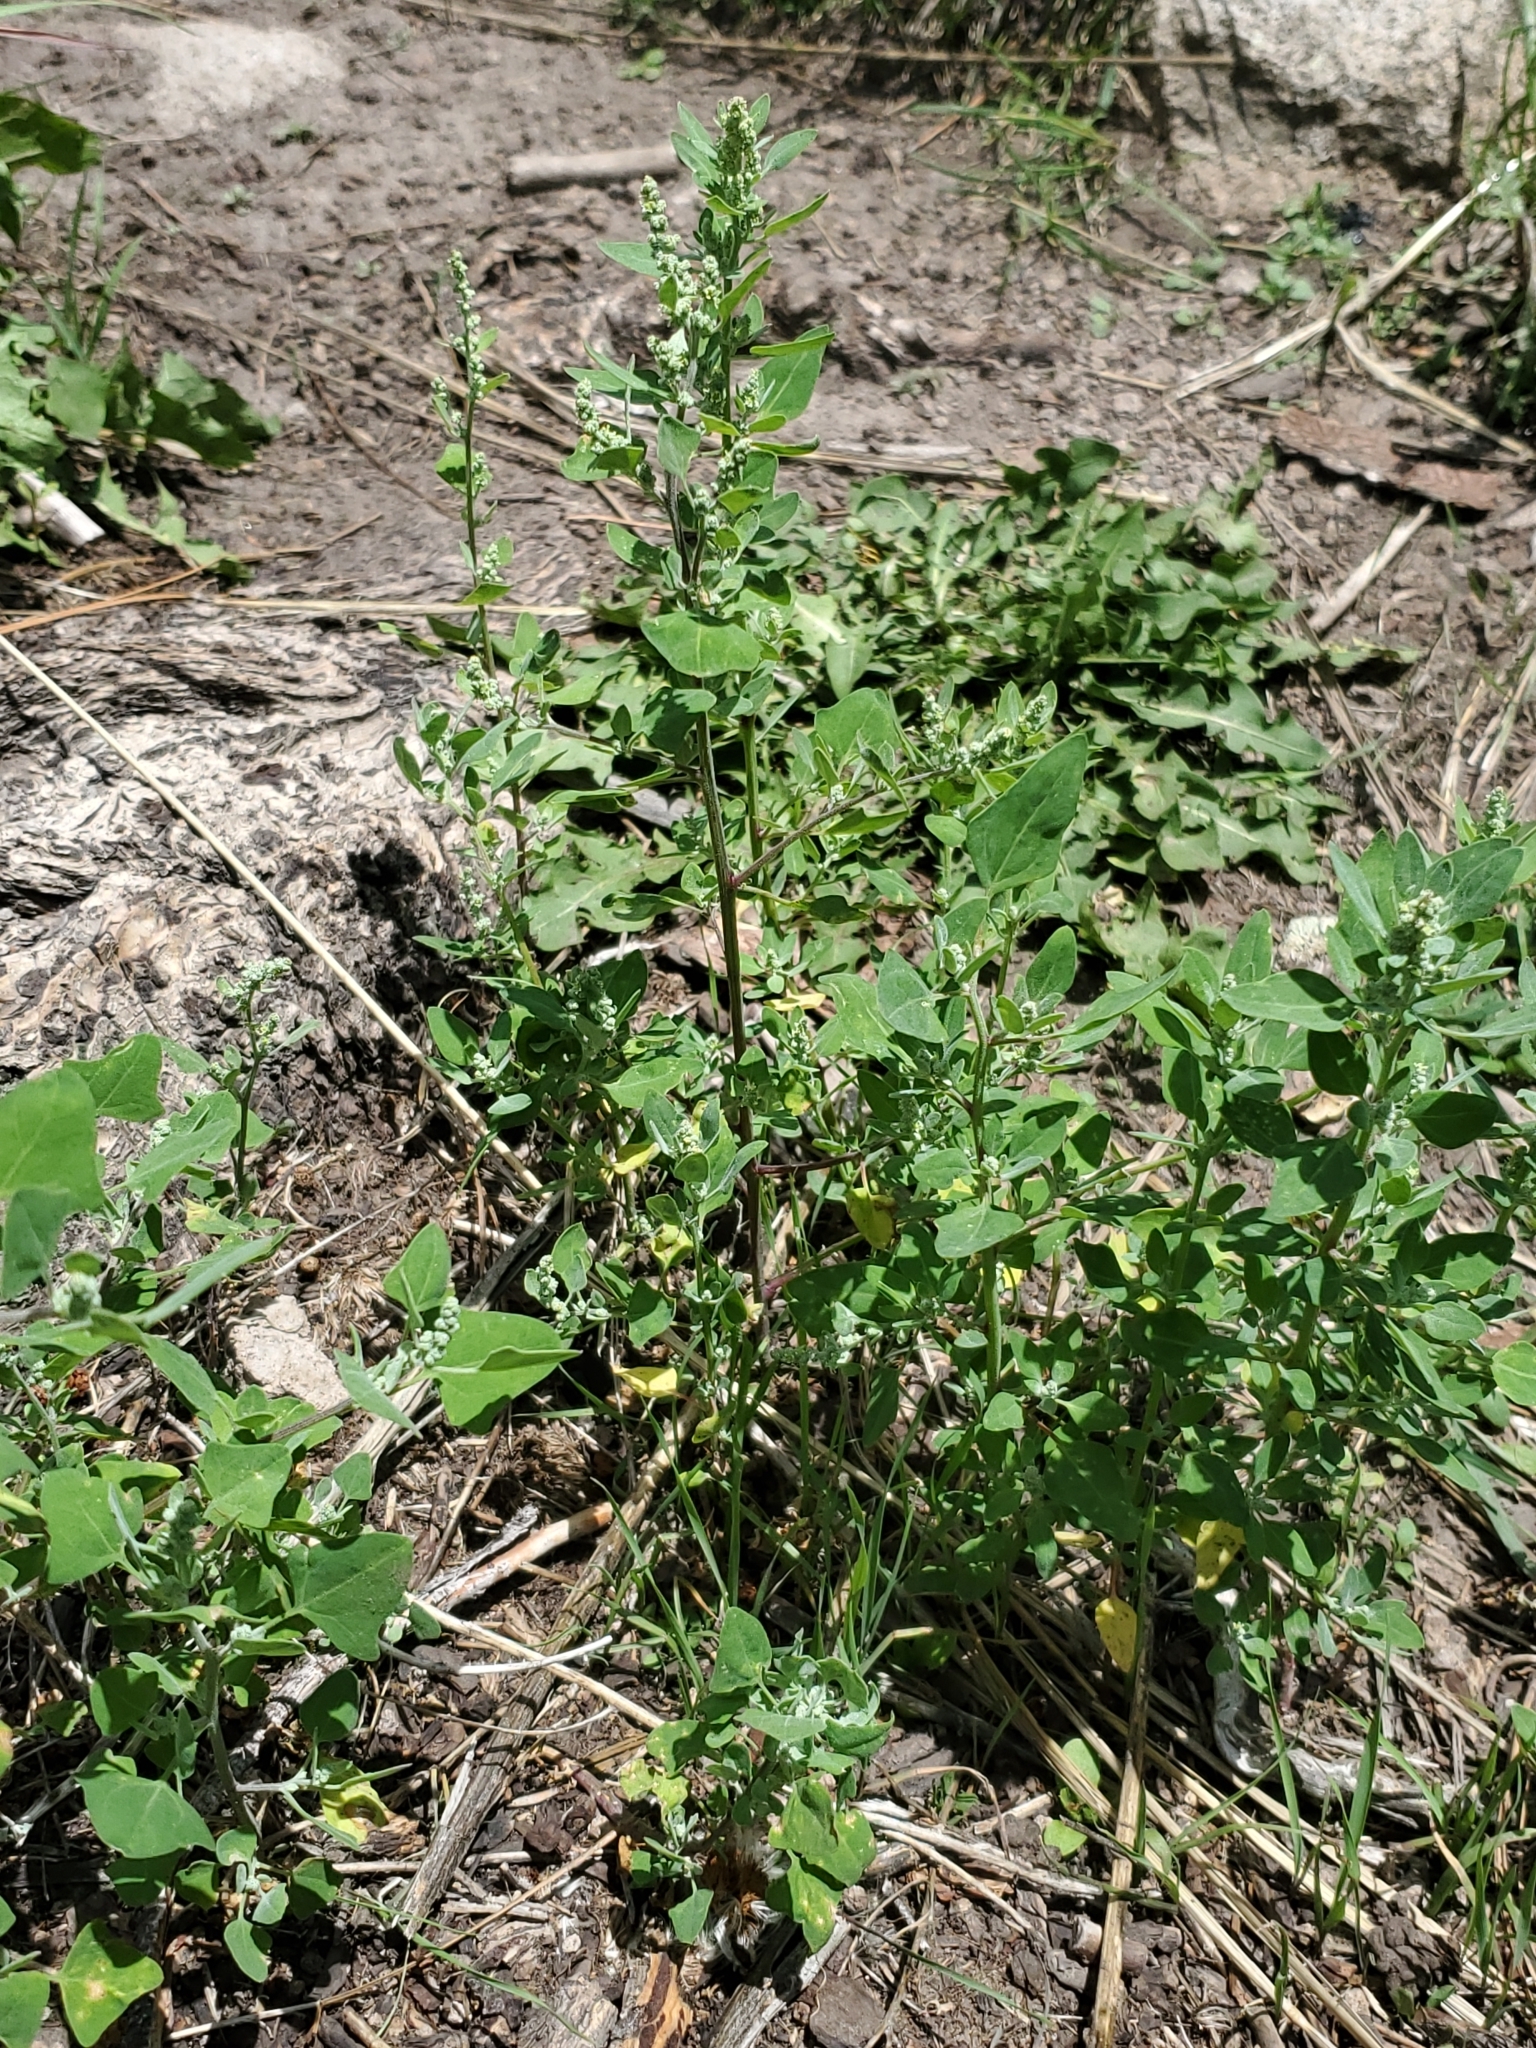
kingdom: Plantae
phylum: Tracheophyta
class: Magnoliopsida
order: Caryophyllales
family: Amaranthaceae
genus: Chenopodium
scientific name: Chenopodium fremontii
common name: Fremont's goosefoot
